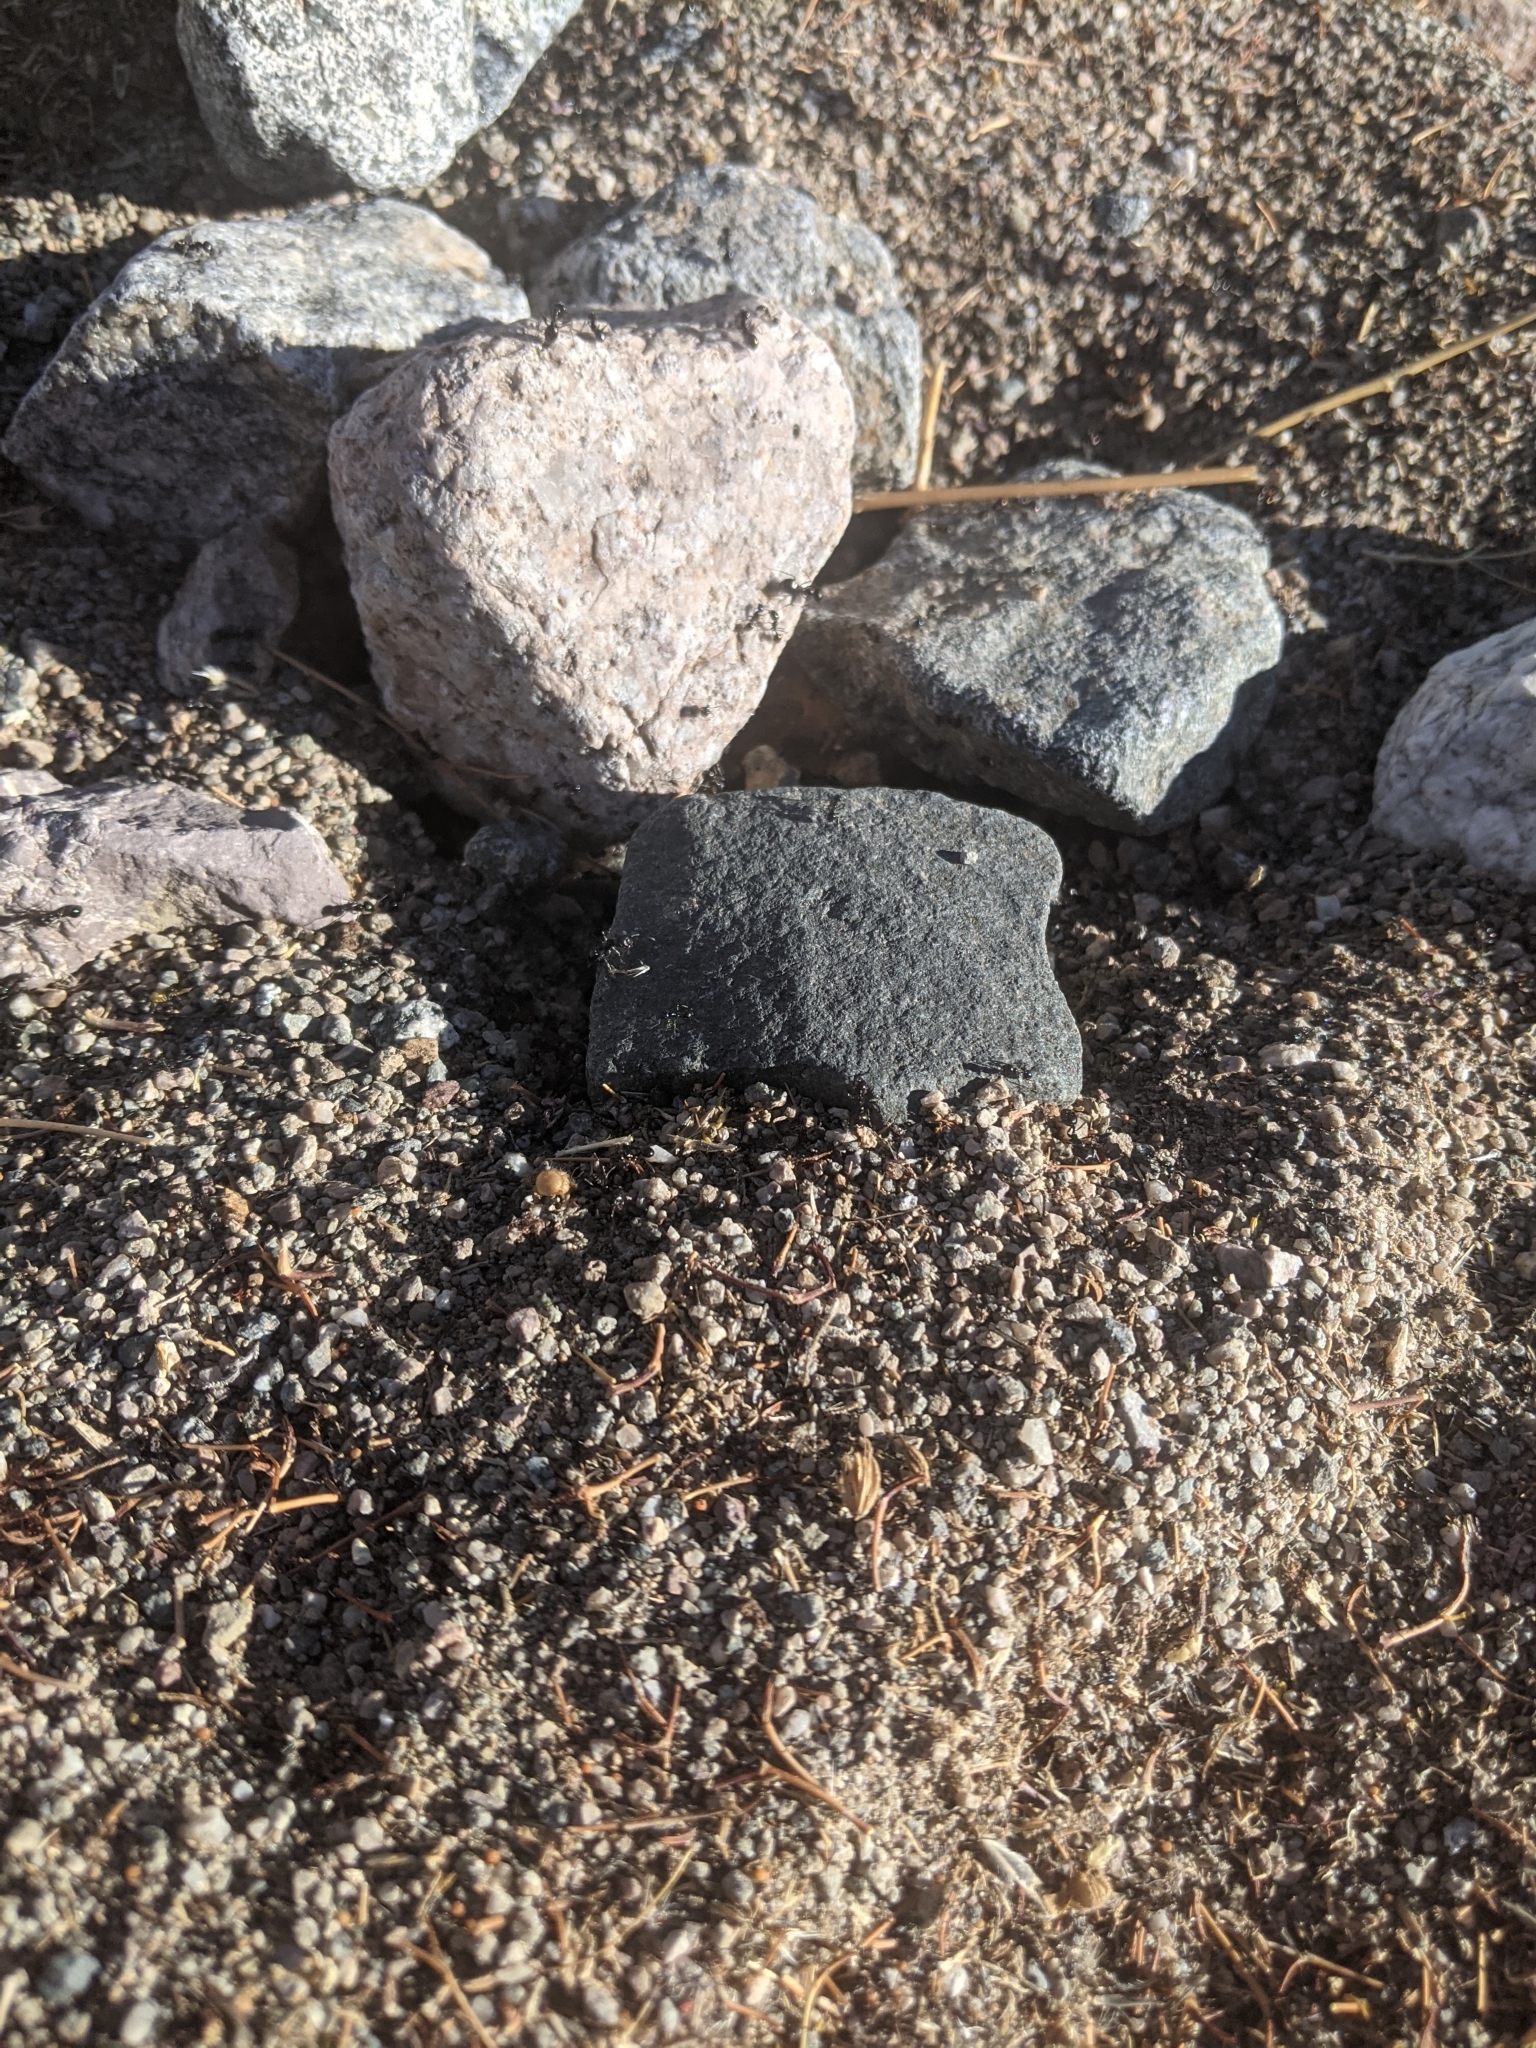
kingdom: Animalia
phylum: Arthropoda
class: Insecta
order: Hymenoptera
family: Formicidae
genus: Messor
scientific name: Messor pergandei
